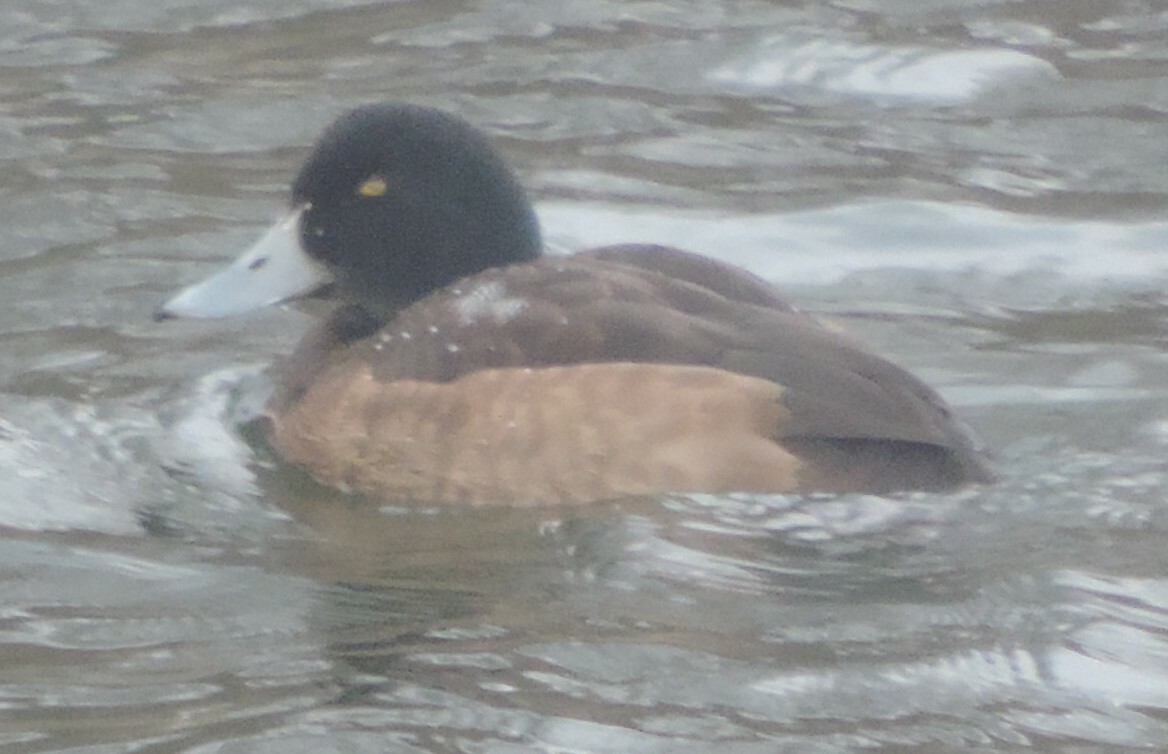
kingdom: Animalia
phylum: Chordata
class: Aves
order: Anseriformes
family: Anatidae
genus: Aythya
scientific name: Aythya marila
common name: Greater scaup
